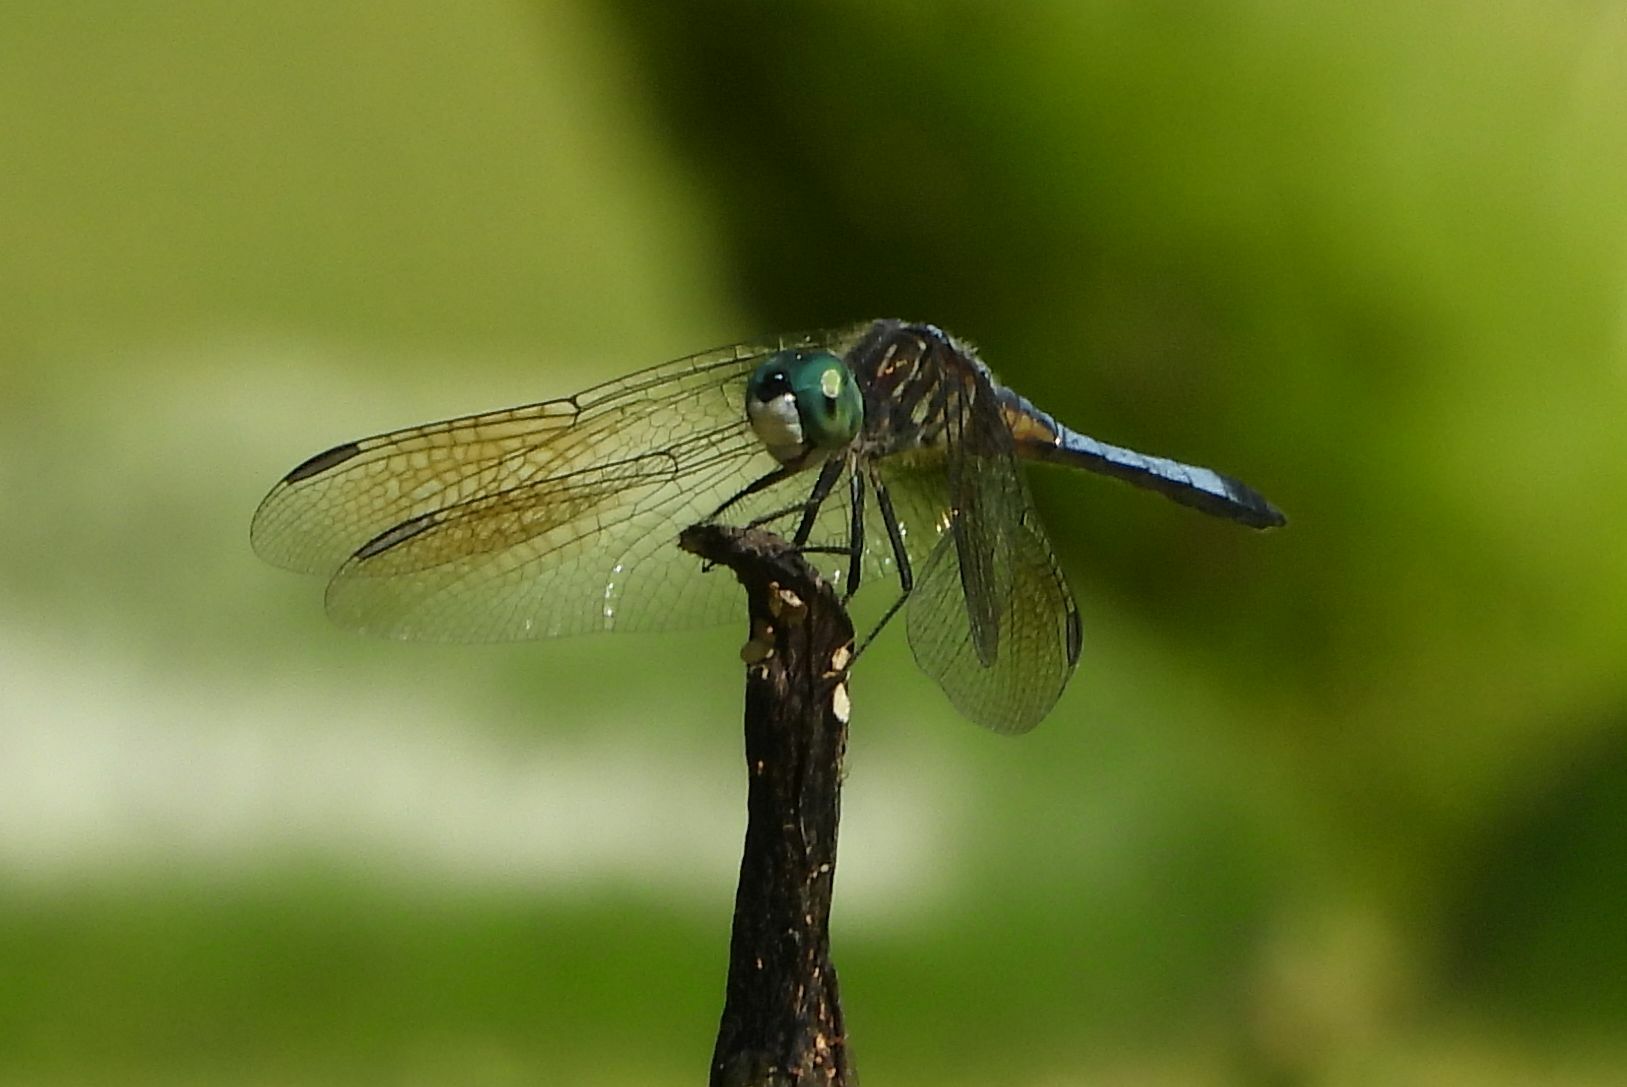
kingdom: Animalia
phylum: Arthropoda
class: Insecta
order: Odonata
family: Libellulidae
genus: Pachydiplax
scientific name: Pachydiplax longipennis
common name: Blue dasher
